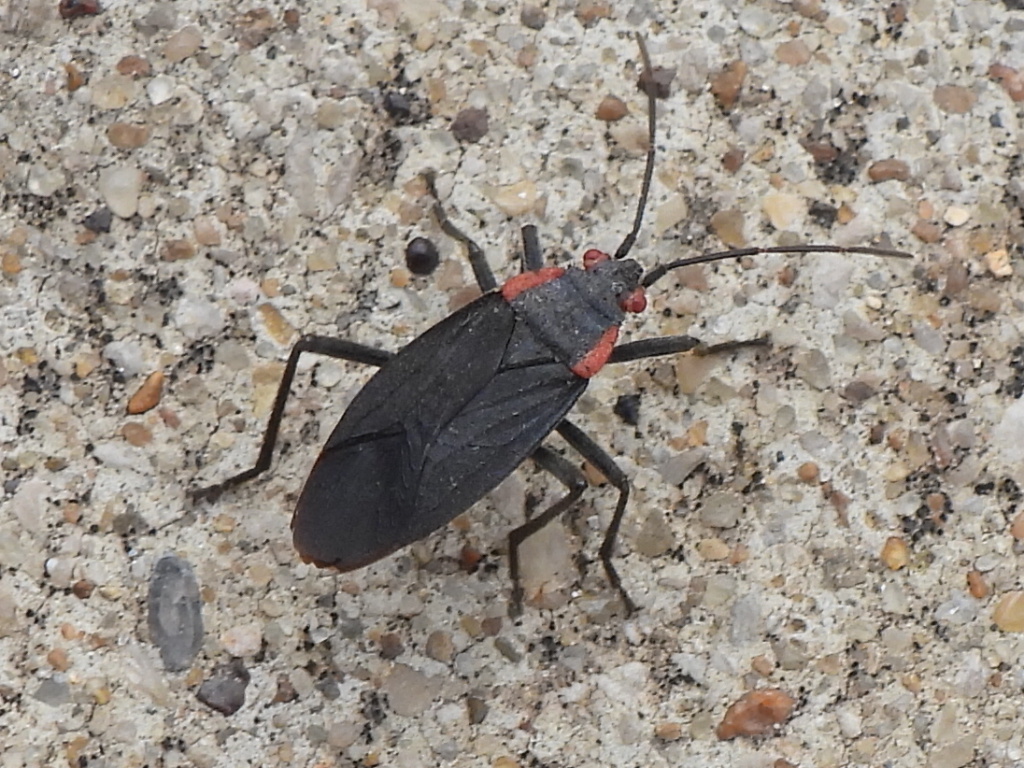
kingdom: Animalia
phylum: Arthropoda
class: Insecta
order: Hemiptera
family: Rhopalidae
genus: Jadera
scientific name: Jadera haematoloma
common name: Red-shouldered bug
